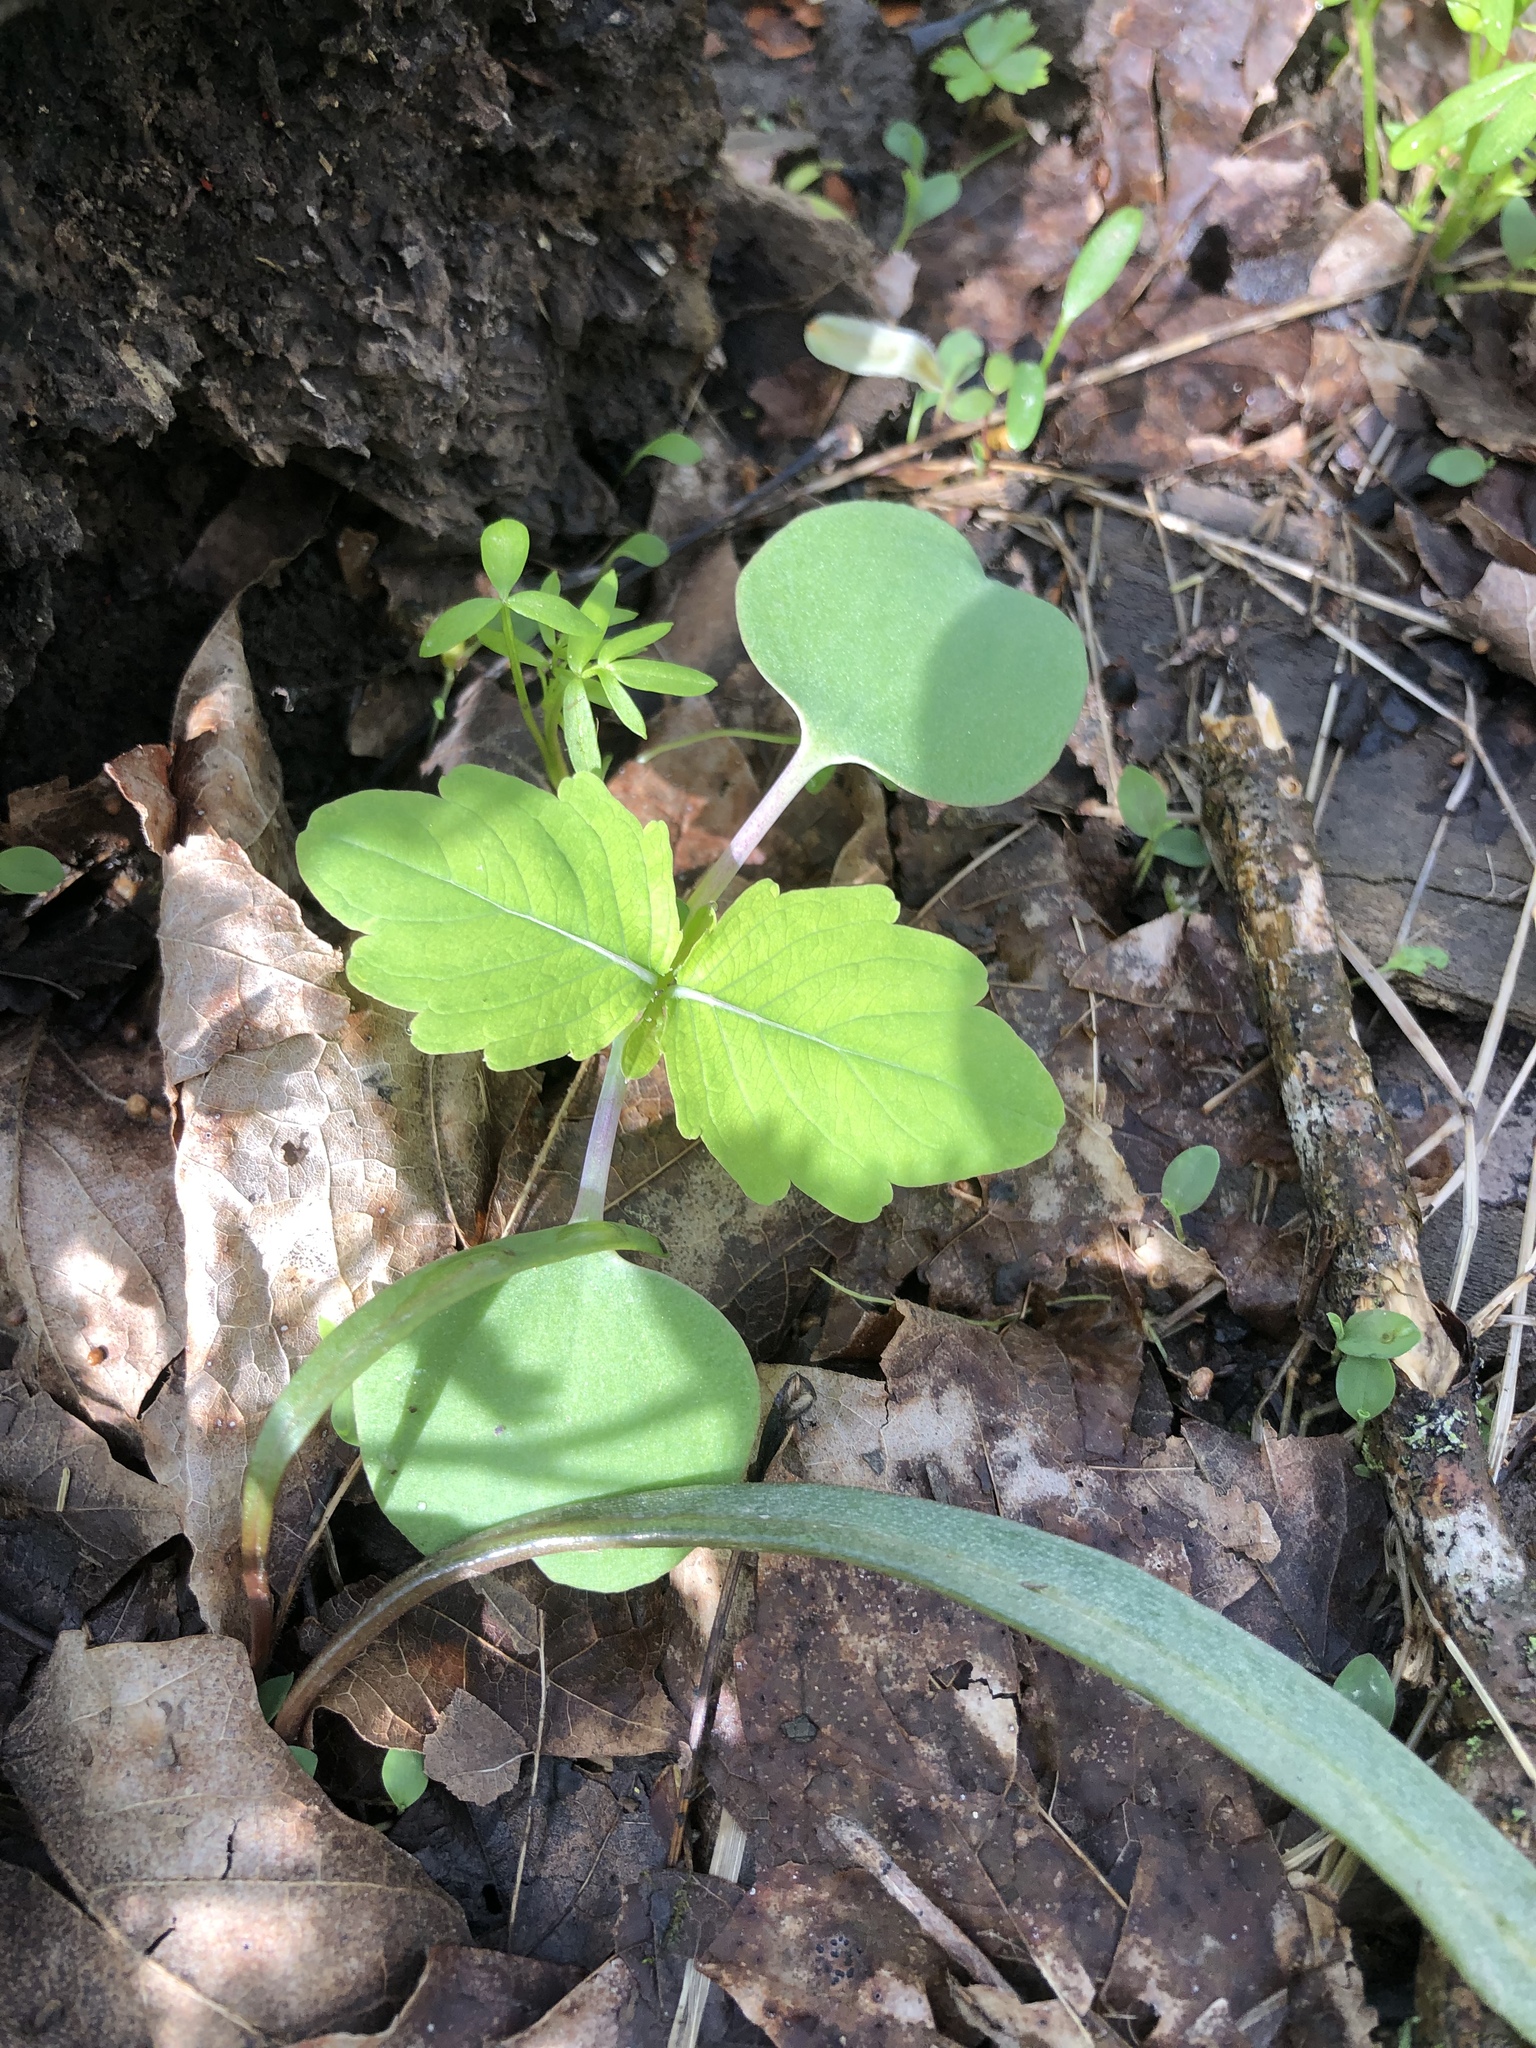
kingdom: Plantae
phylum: Tracheophyta
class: Magnoliopsida
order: Ericales
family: Balsaminaceae
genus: Impatiens
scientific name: Impatiens capensis
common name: Orange balsam
